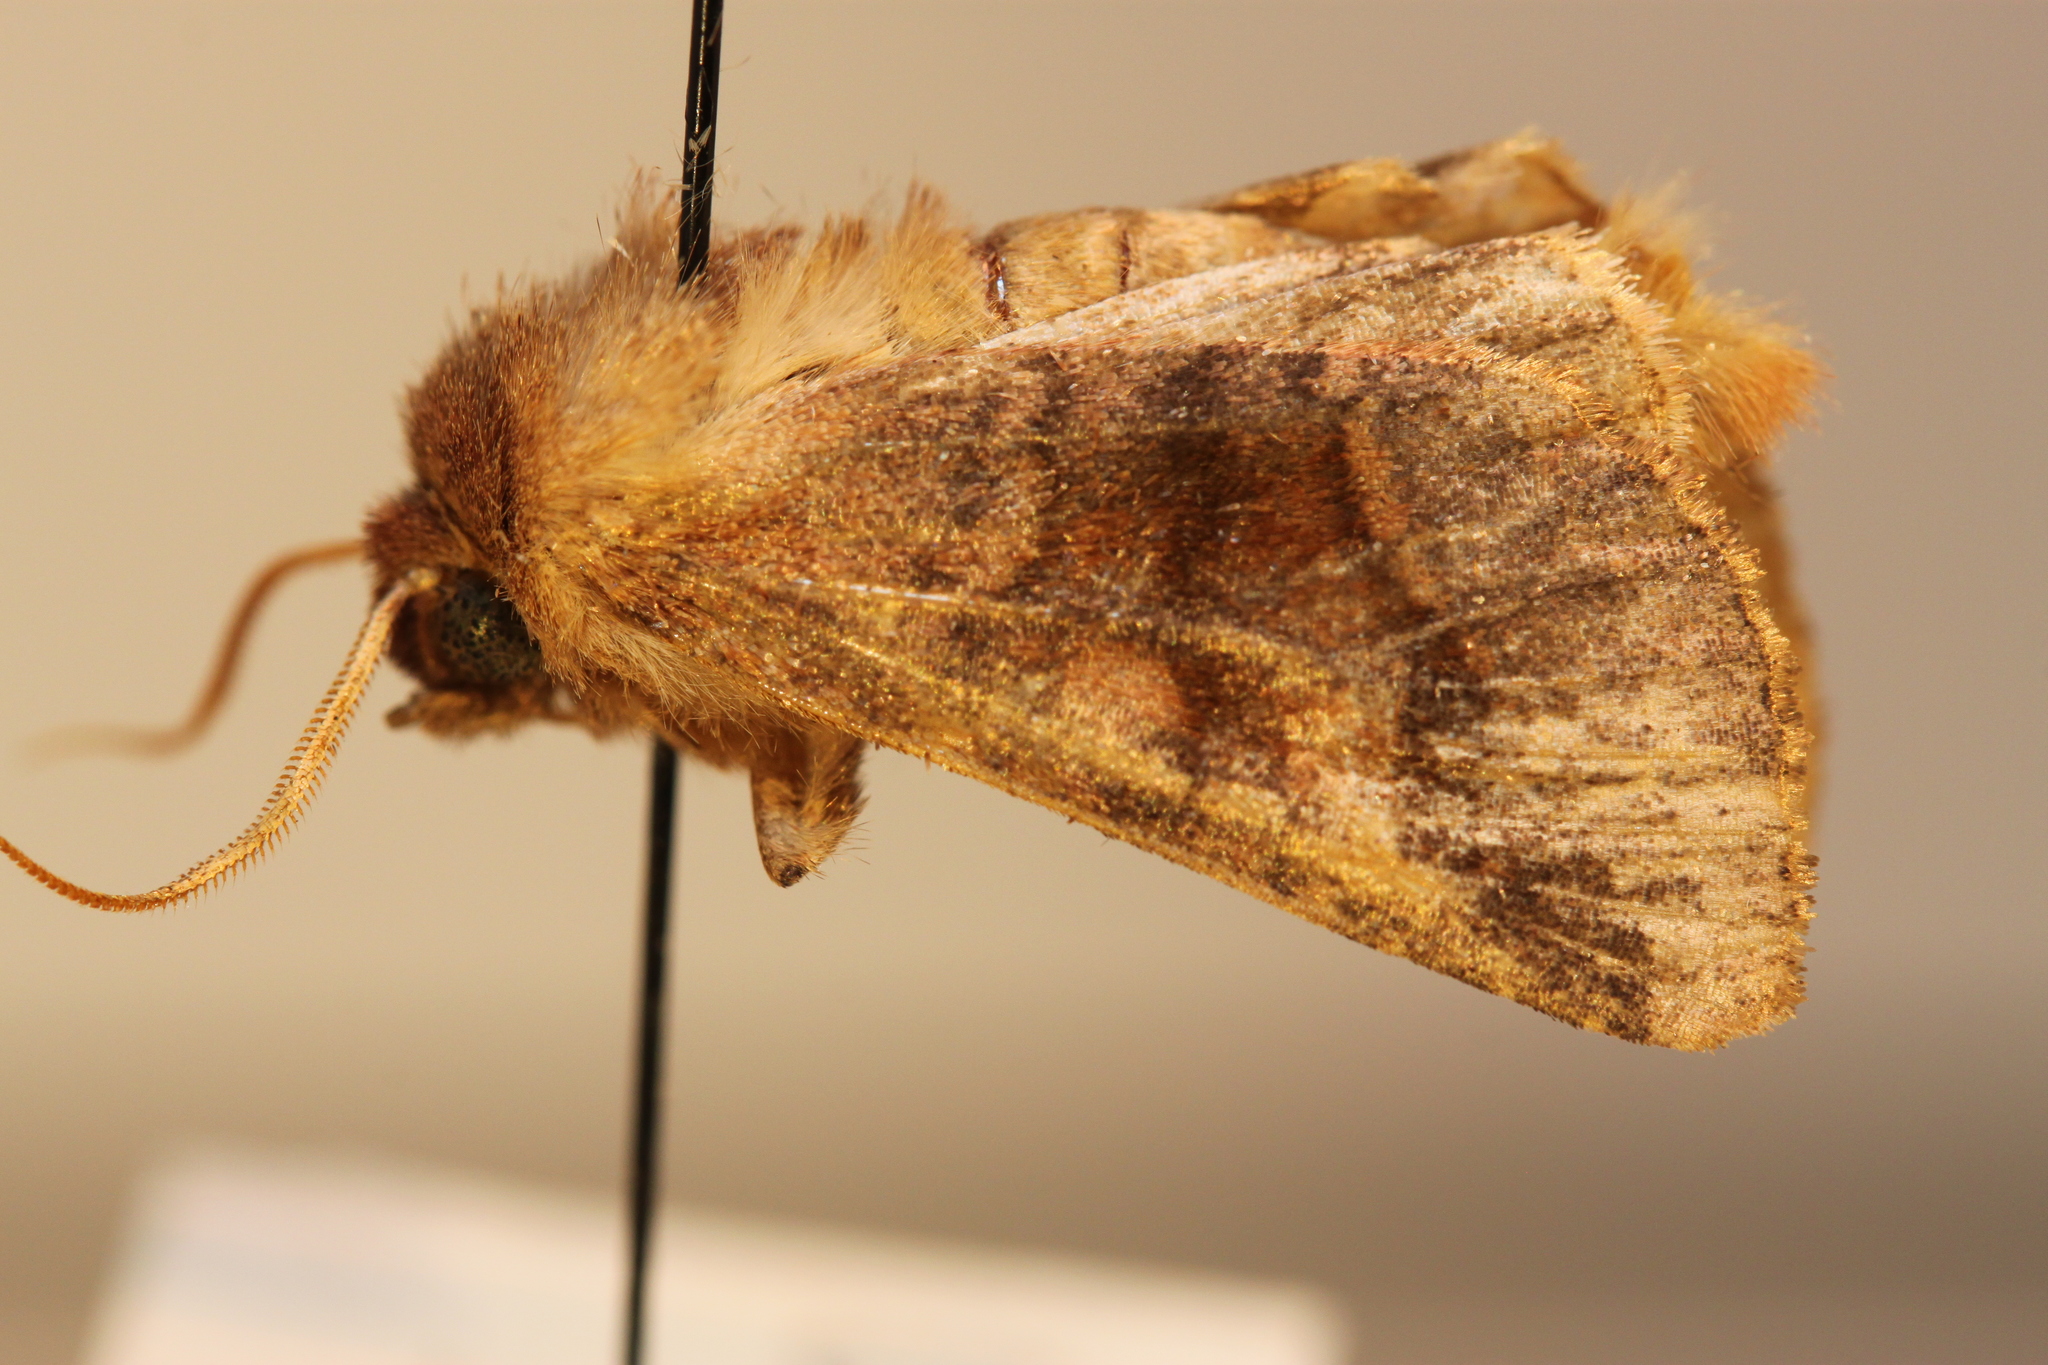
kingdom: Animalia
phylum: Arthropoda
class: Insecta
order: Lepidoptera
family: Noctuidae
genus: Nephelodes
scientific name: Nephelodes minians
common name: Bronzed cutworm
